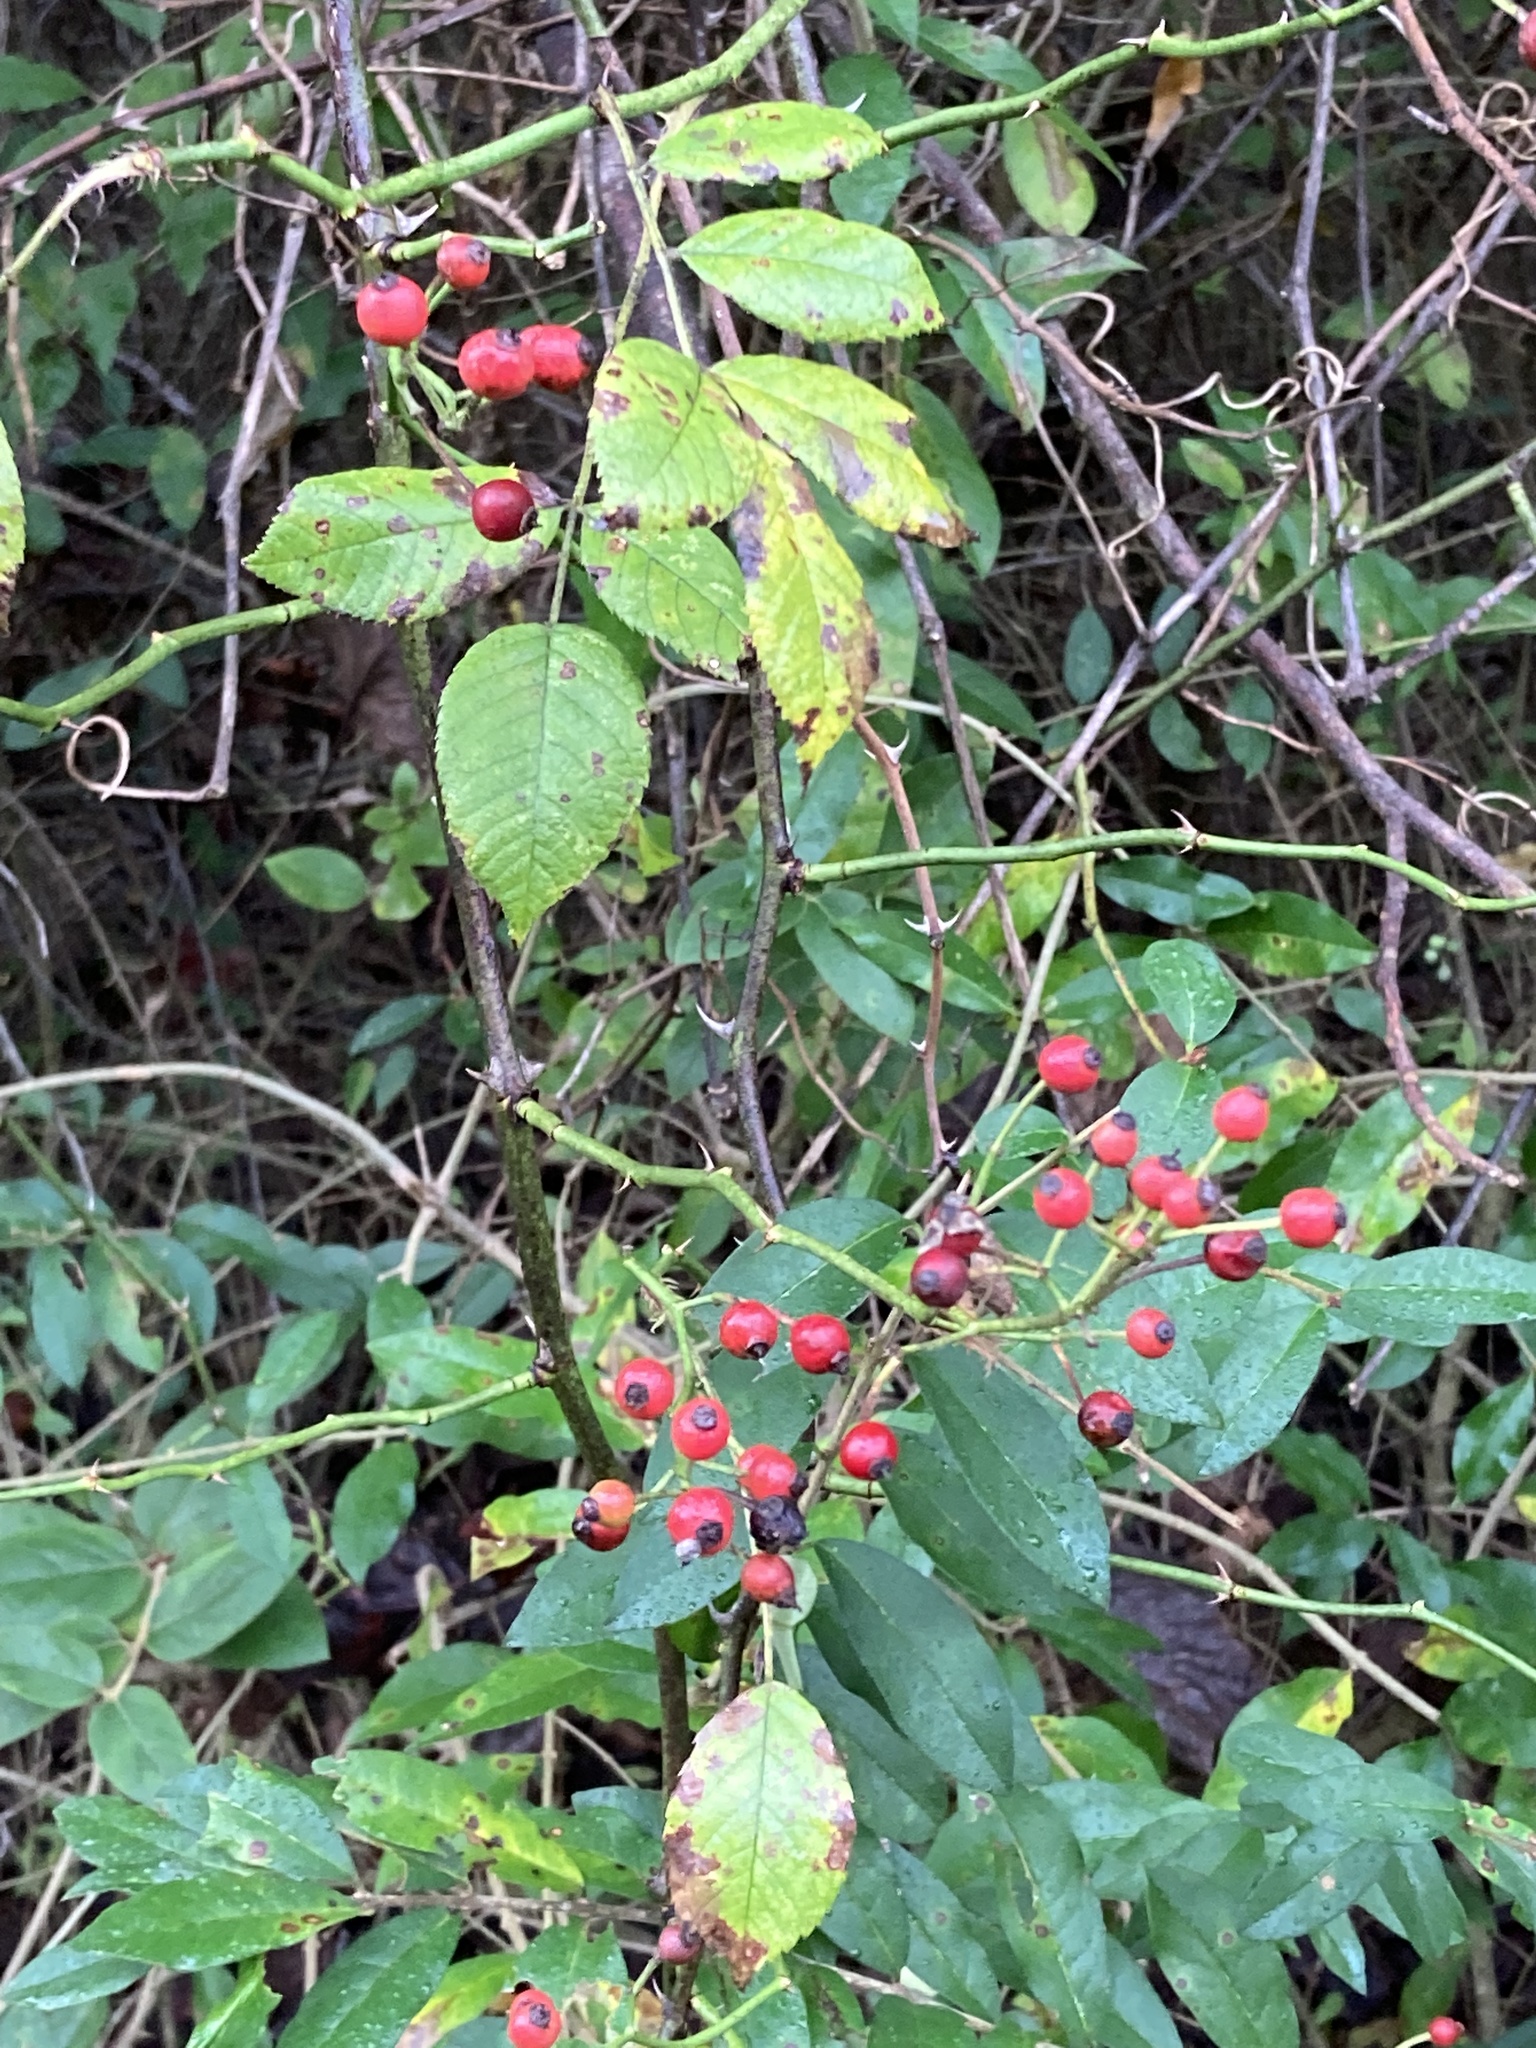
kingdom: Plantae
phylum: Tracheophyta
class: Magnoliopsida
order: Rosales
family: Rosaceae
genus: Rosa
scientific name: Rosa multiflora
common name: Multiflora rose
